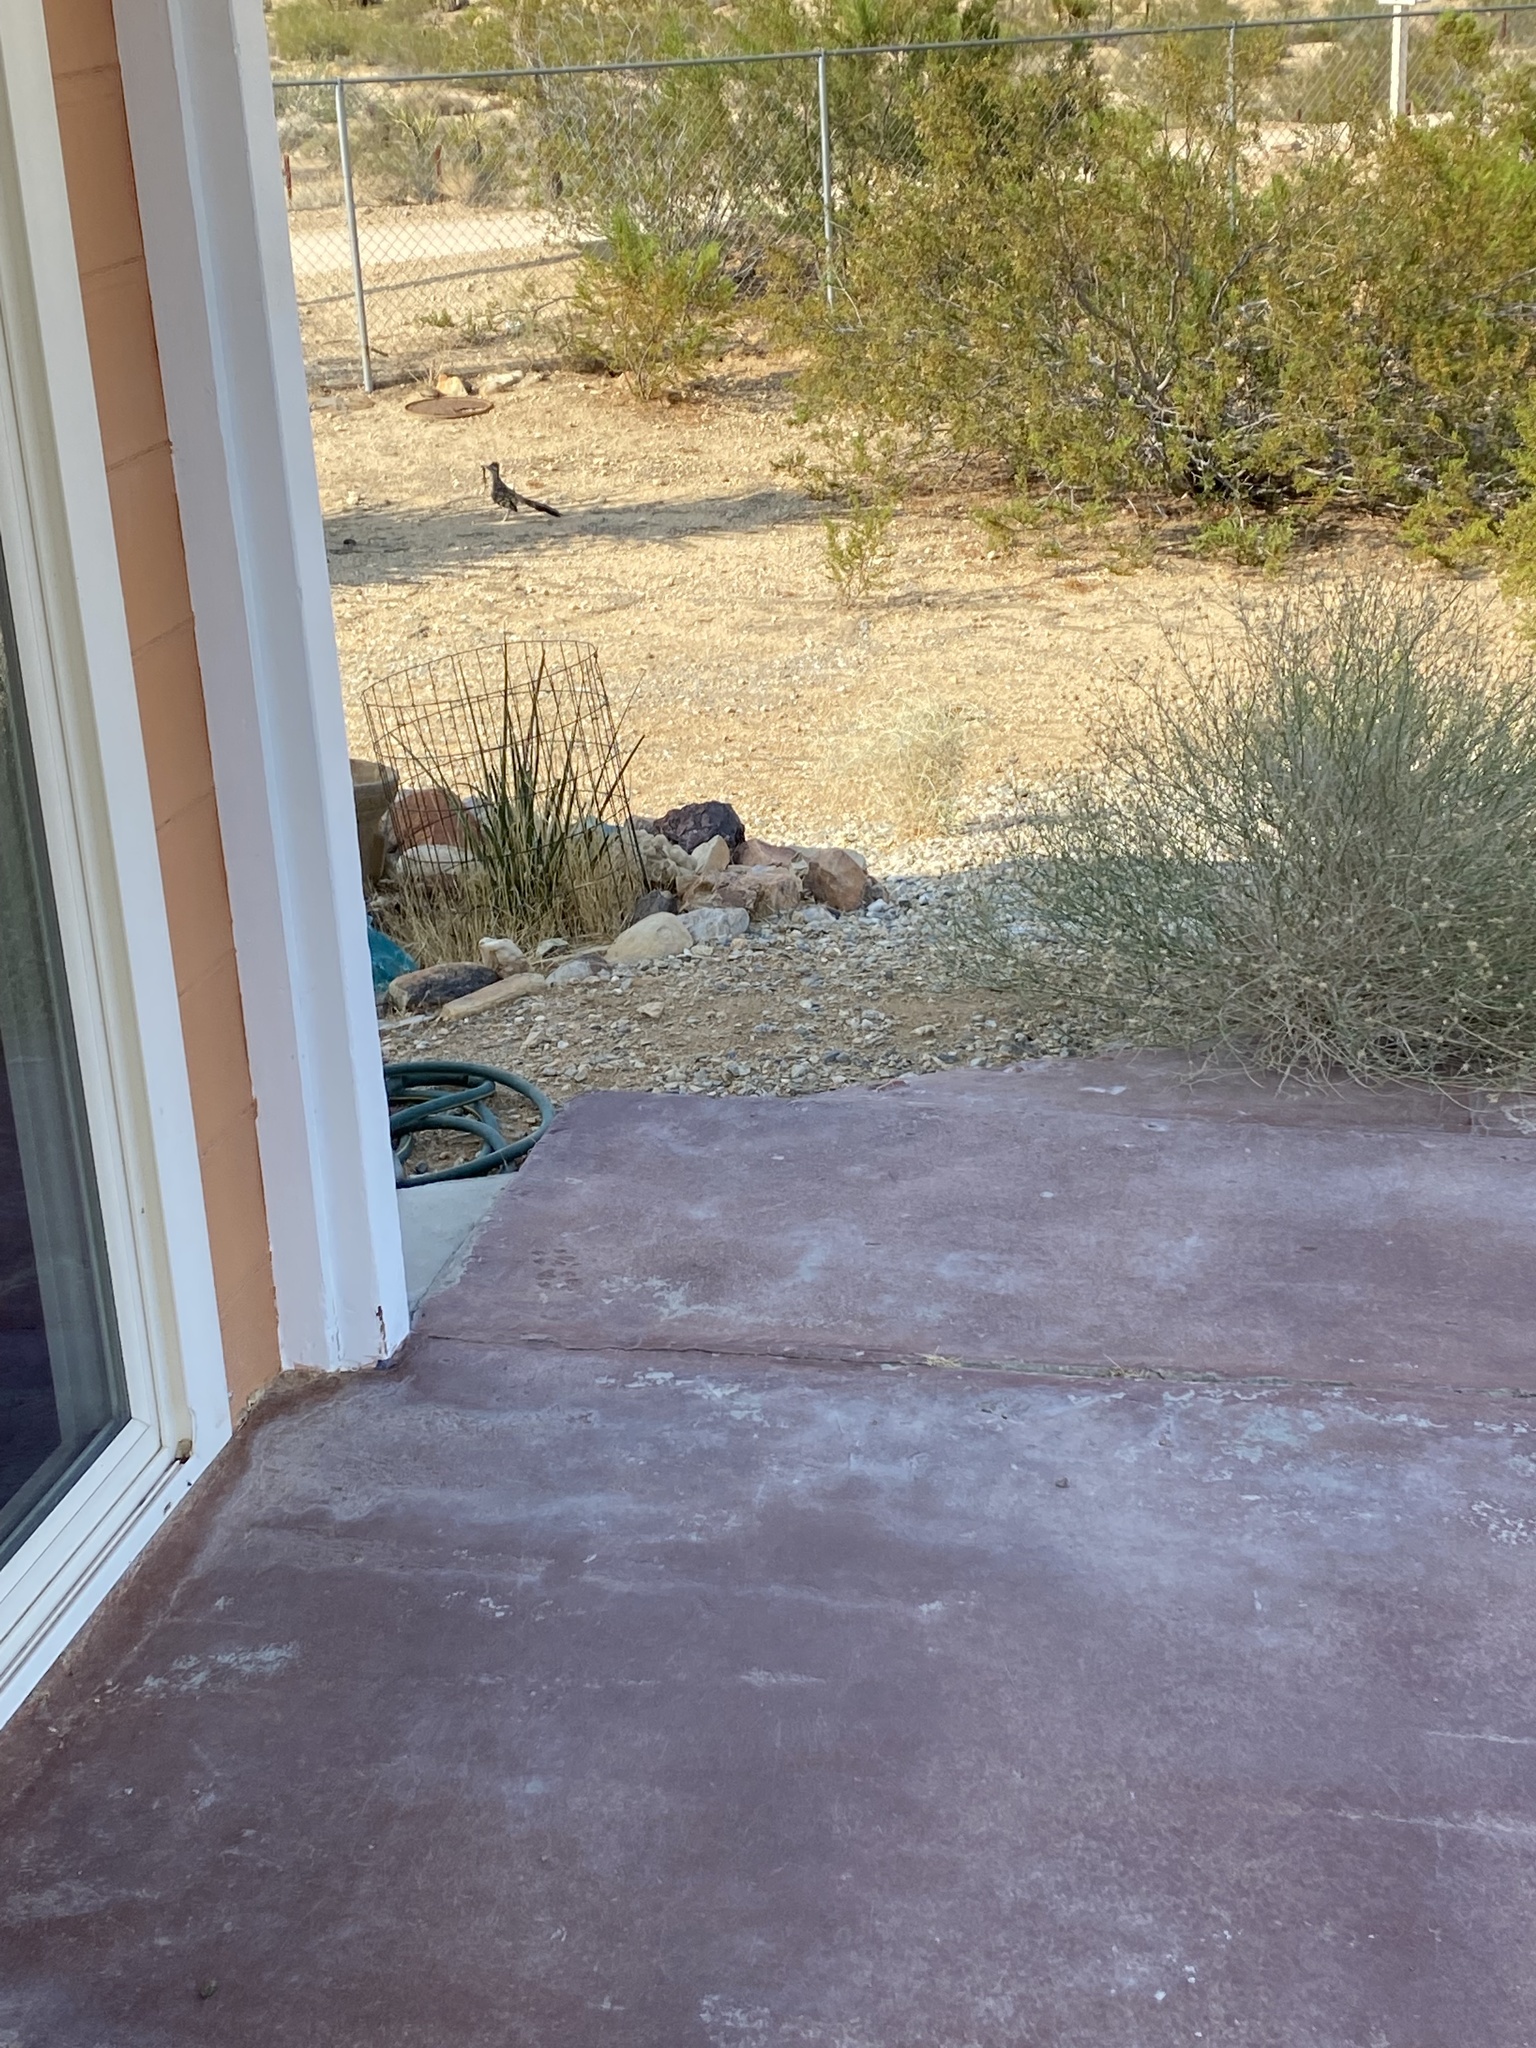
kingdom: Animalia
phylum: Chordata
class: Aves
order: Cuculiformes
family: Cuculidae
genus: Geococcyx
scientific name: Geococcyx californianus
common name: Greater roadrunner
